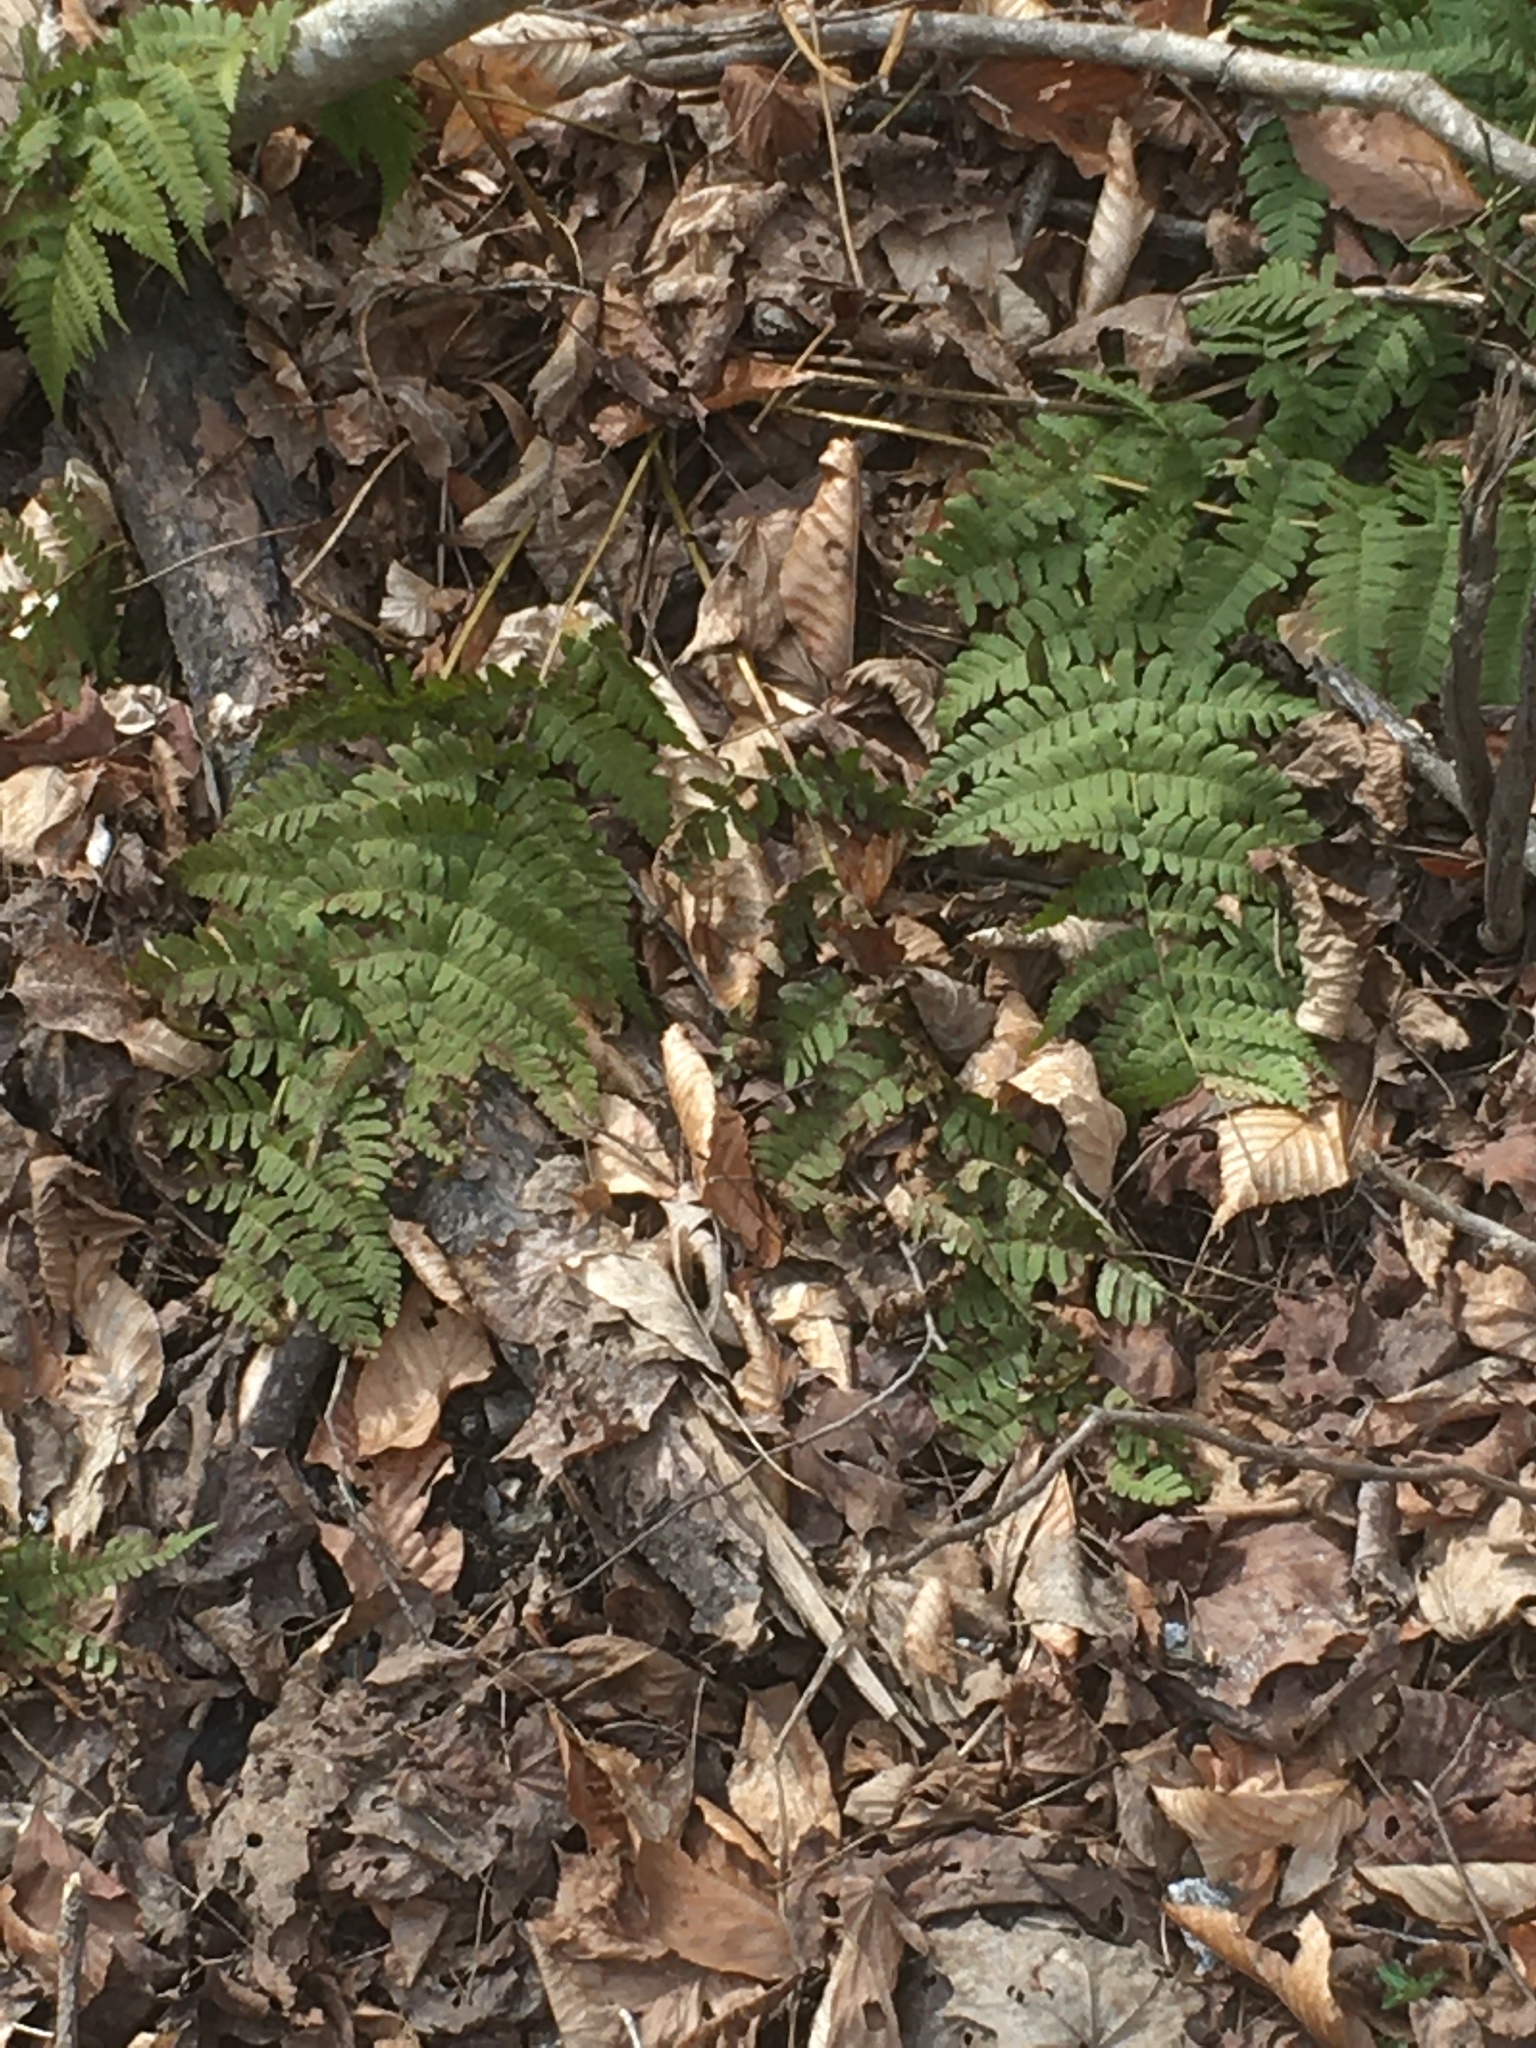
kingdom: Plantae
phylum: Tracheophyta
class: Polypodiopsida
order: Polypodiales
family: Dryopteridaceae
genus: Dryopteris
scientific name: Dryopteris marginalis
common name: Marginal wood fern
